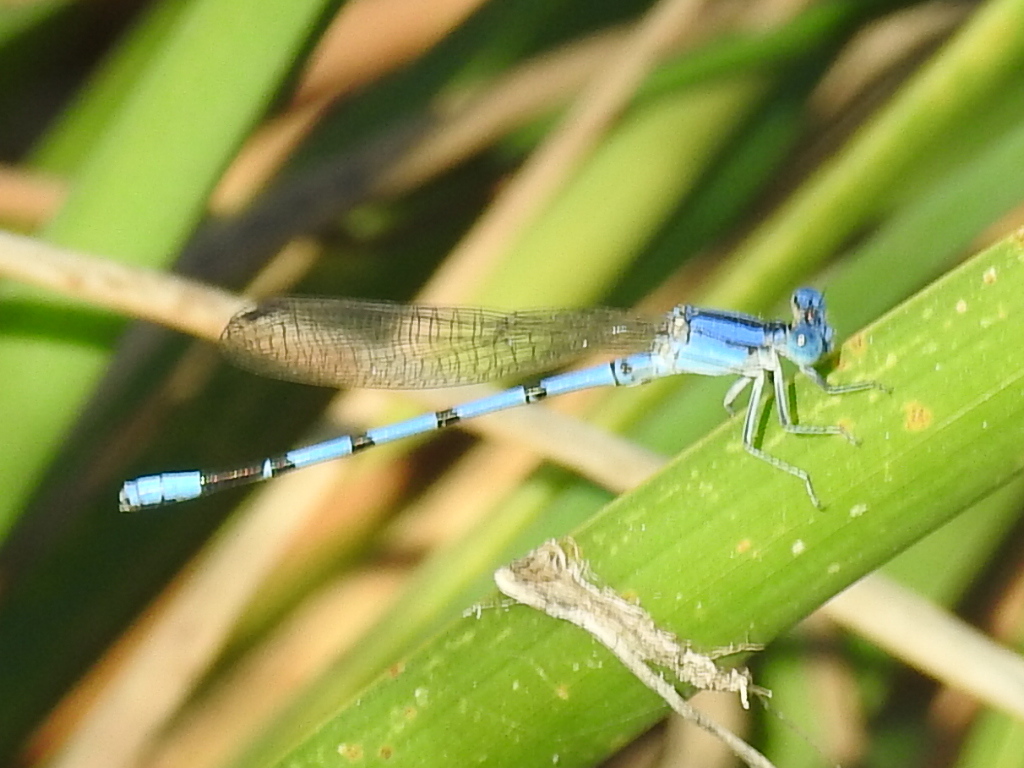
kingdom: Animalia
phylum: Arthropoda
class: Insecta
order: Odonata
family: Coenagrionidae
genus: Argia
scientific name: Argia nahuana
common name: Aztec dancer
